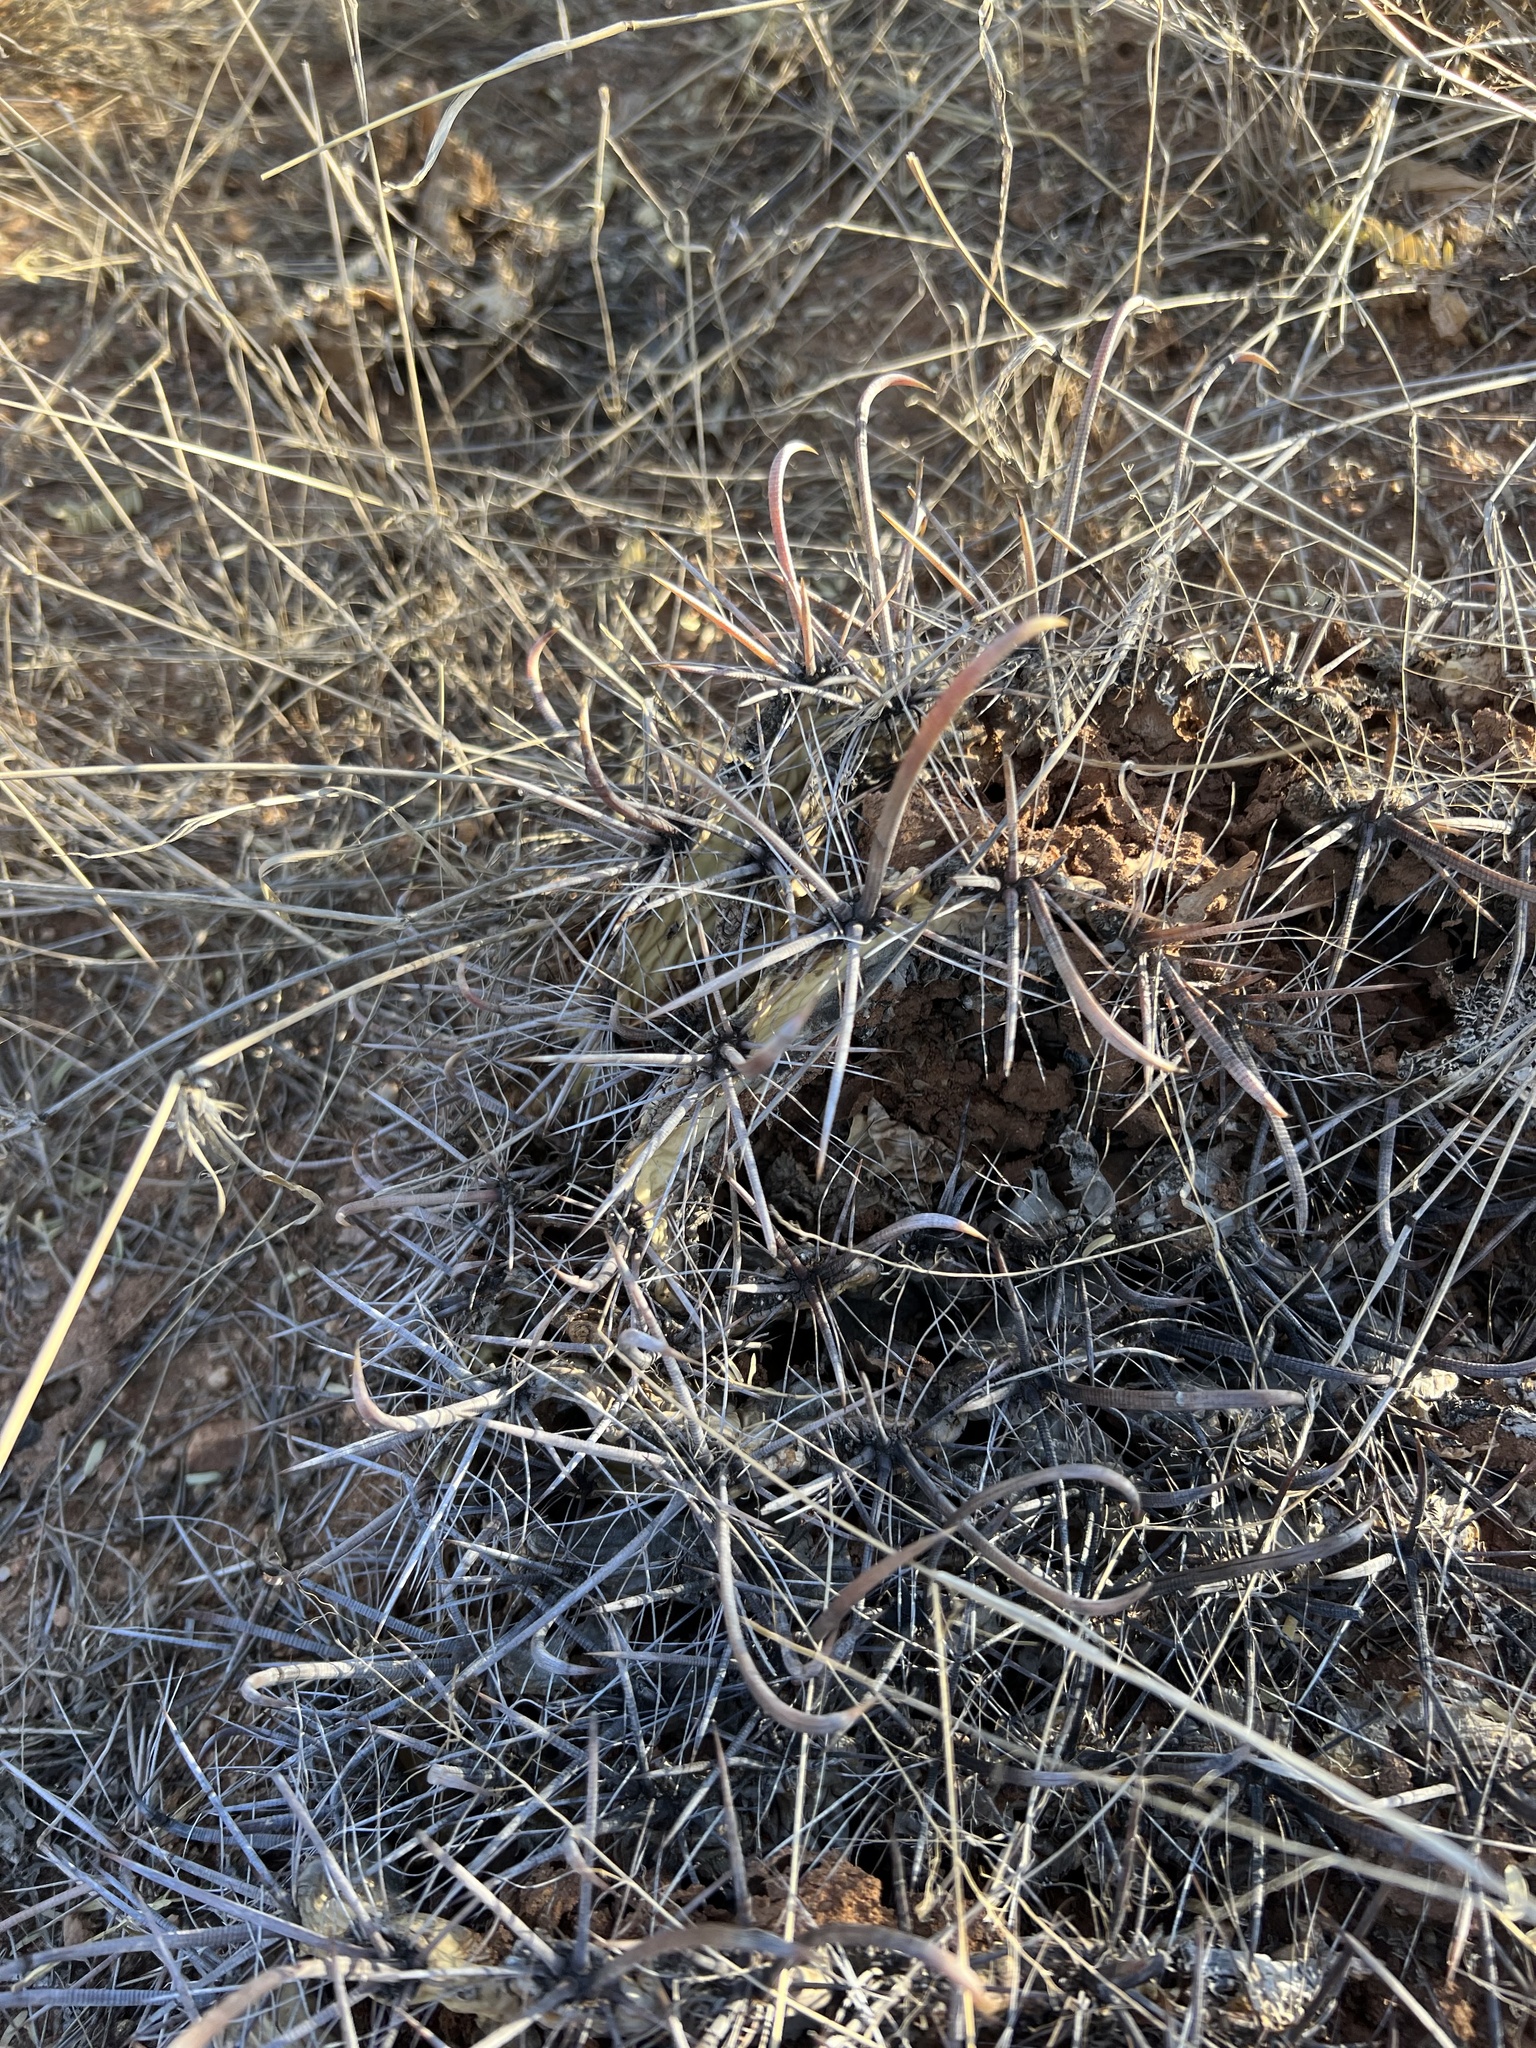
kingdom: Plantae
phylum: Tracheophyta
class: Magnoliopsida
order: Caryophyllales
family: Cactaceae
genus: Ferocactus
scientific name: Ferocactus wislizeni
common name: Candy barrel cactus
